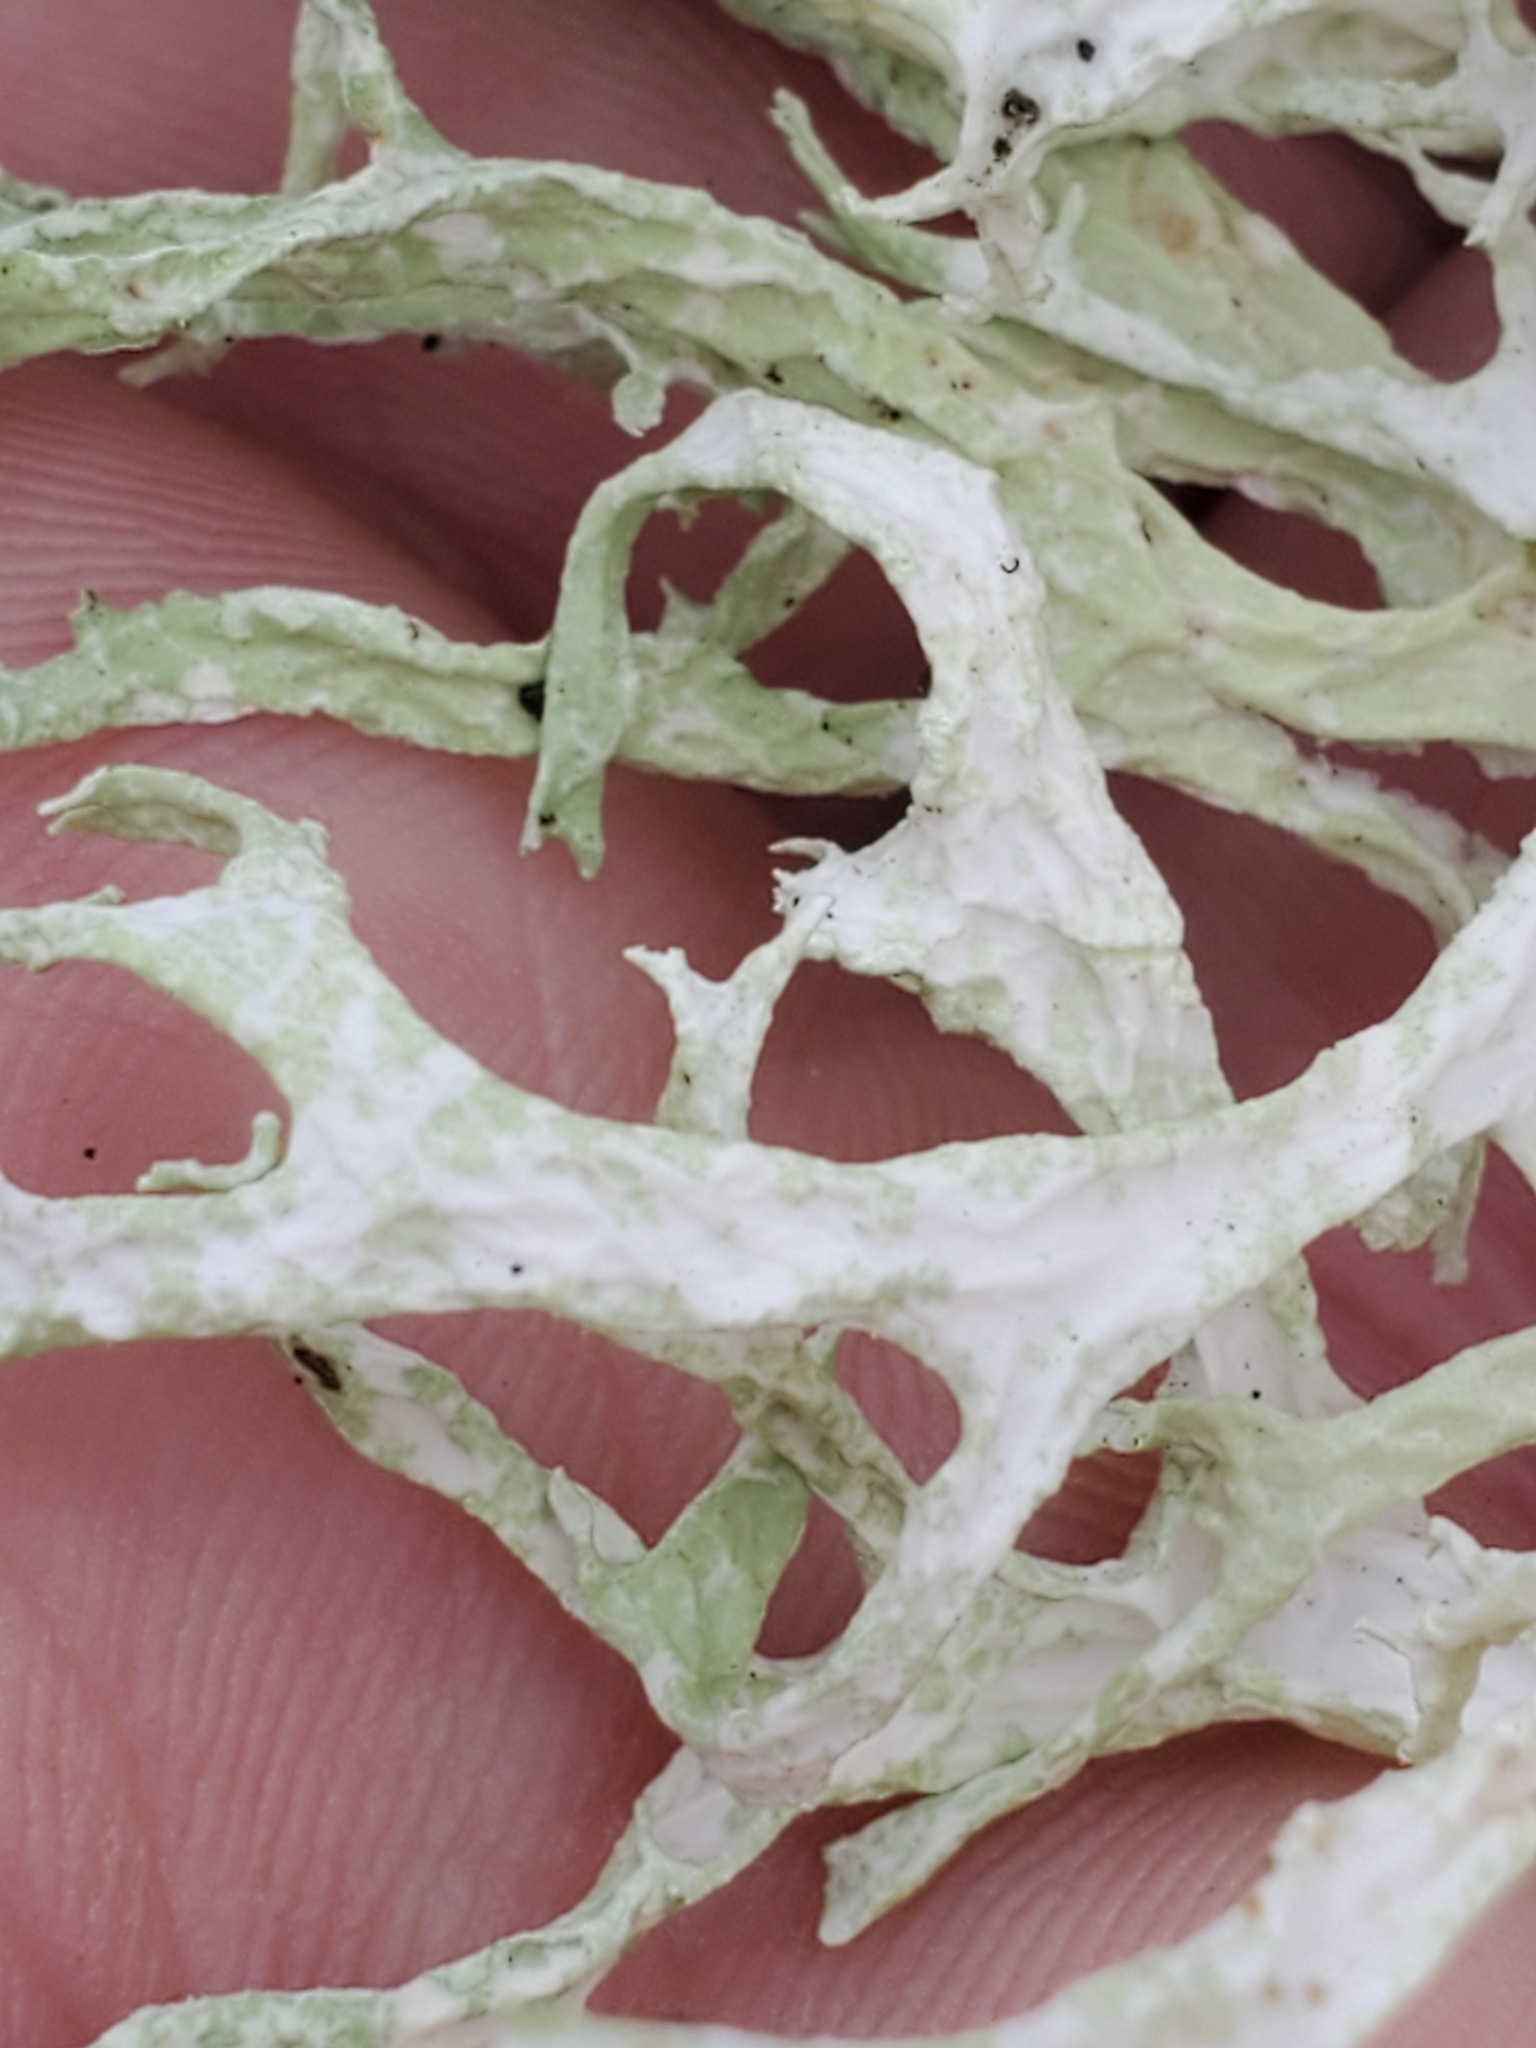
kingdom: Fungi
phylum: Ascomycota
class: Lecanoromycetes
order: Lecanorales
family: Parmeliaceae
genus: Evernia
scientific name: Evernia prunastri
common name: Oak moss
